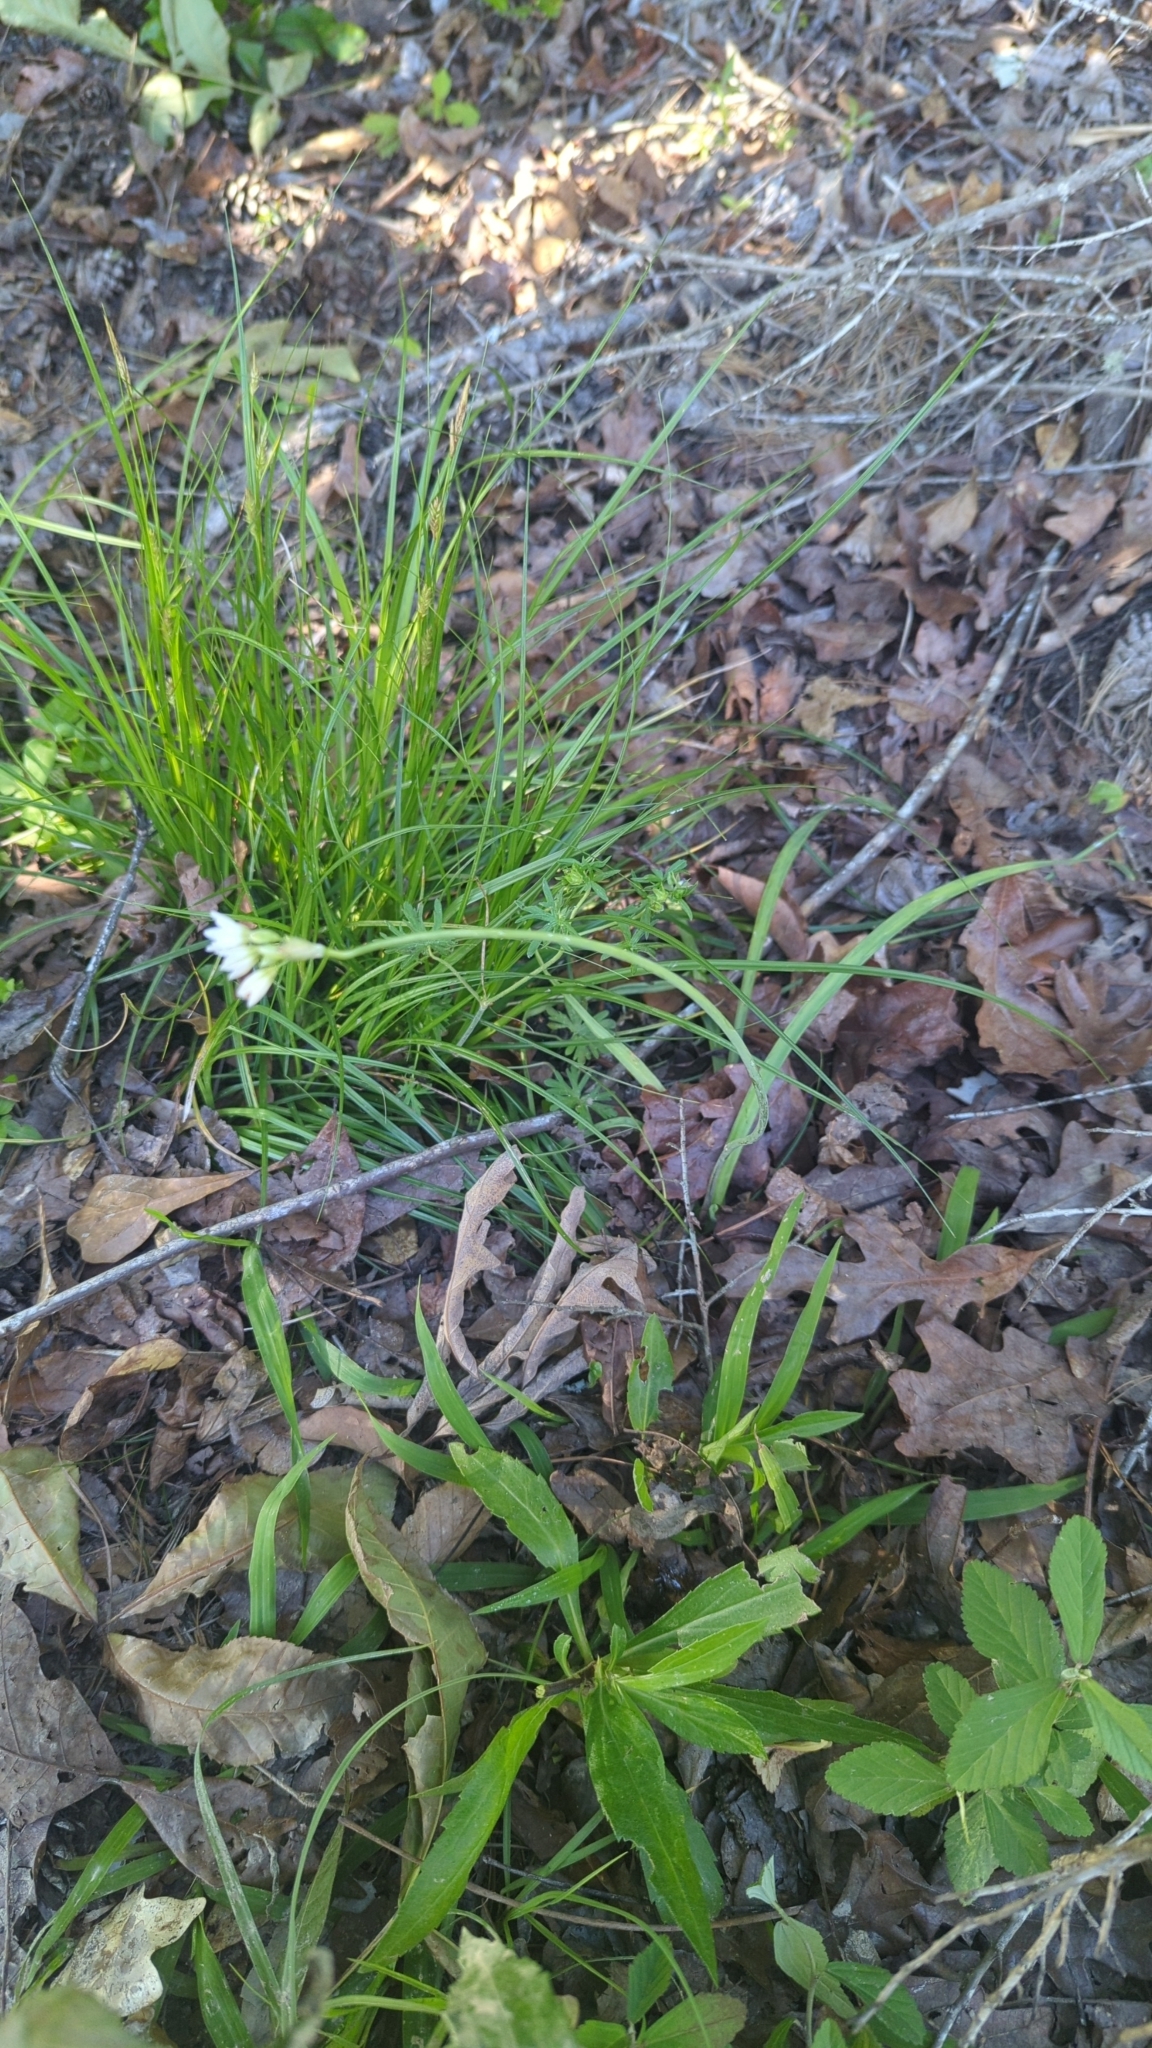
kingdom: Plantae
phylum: Tracheophyta
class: Liliopsida
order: Asparagales
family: Amaryllidaceae
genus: Nothoscordum
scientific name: Nothoscordum gracile
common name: Slender false garlic
